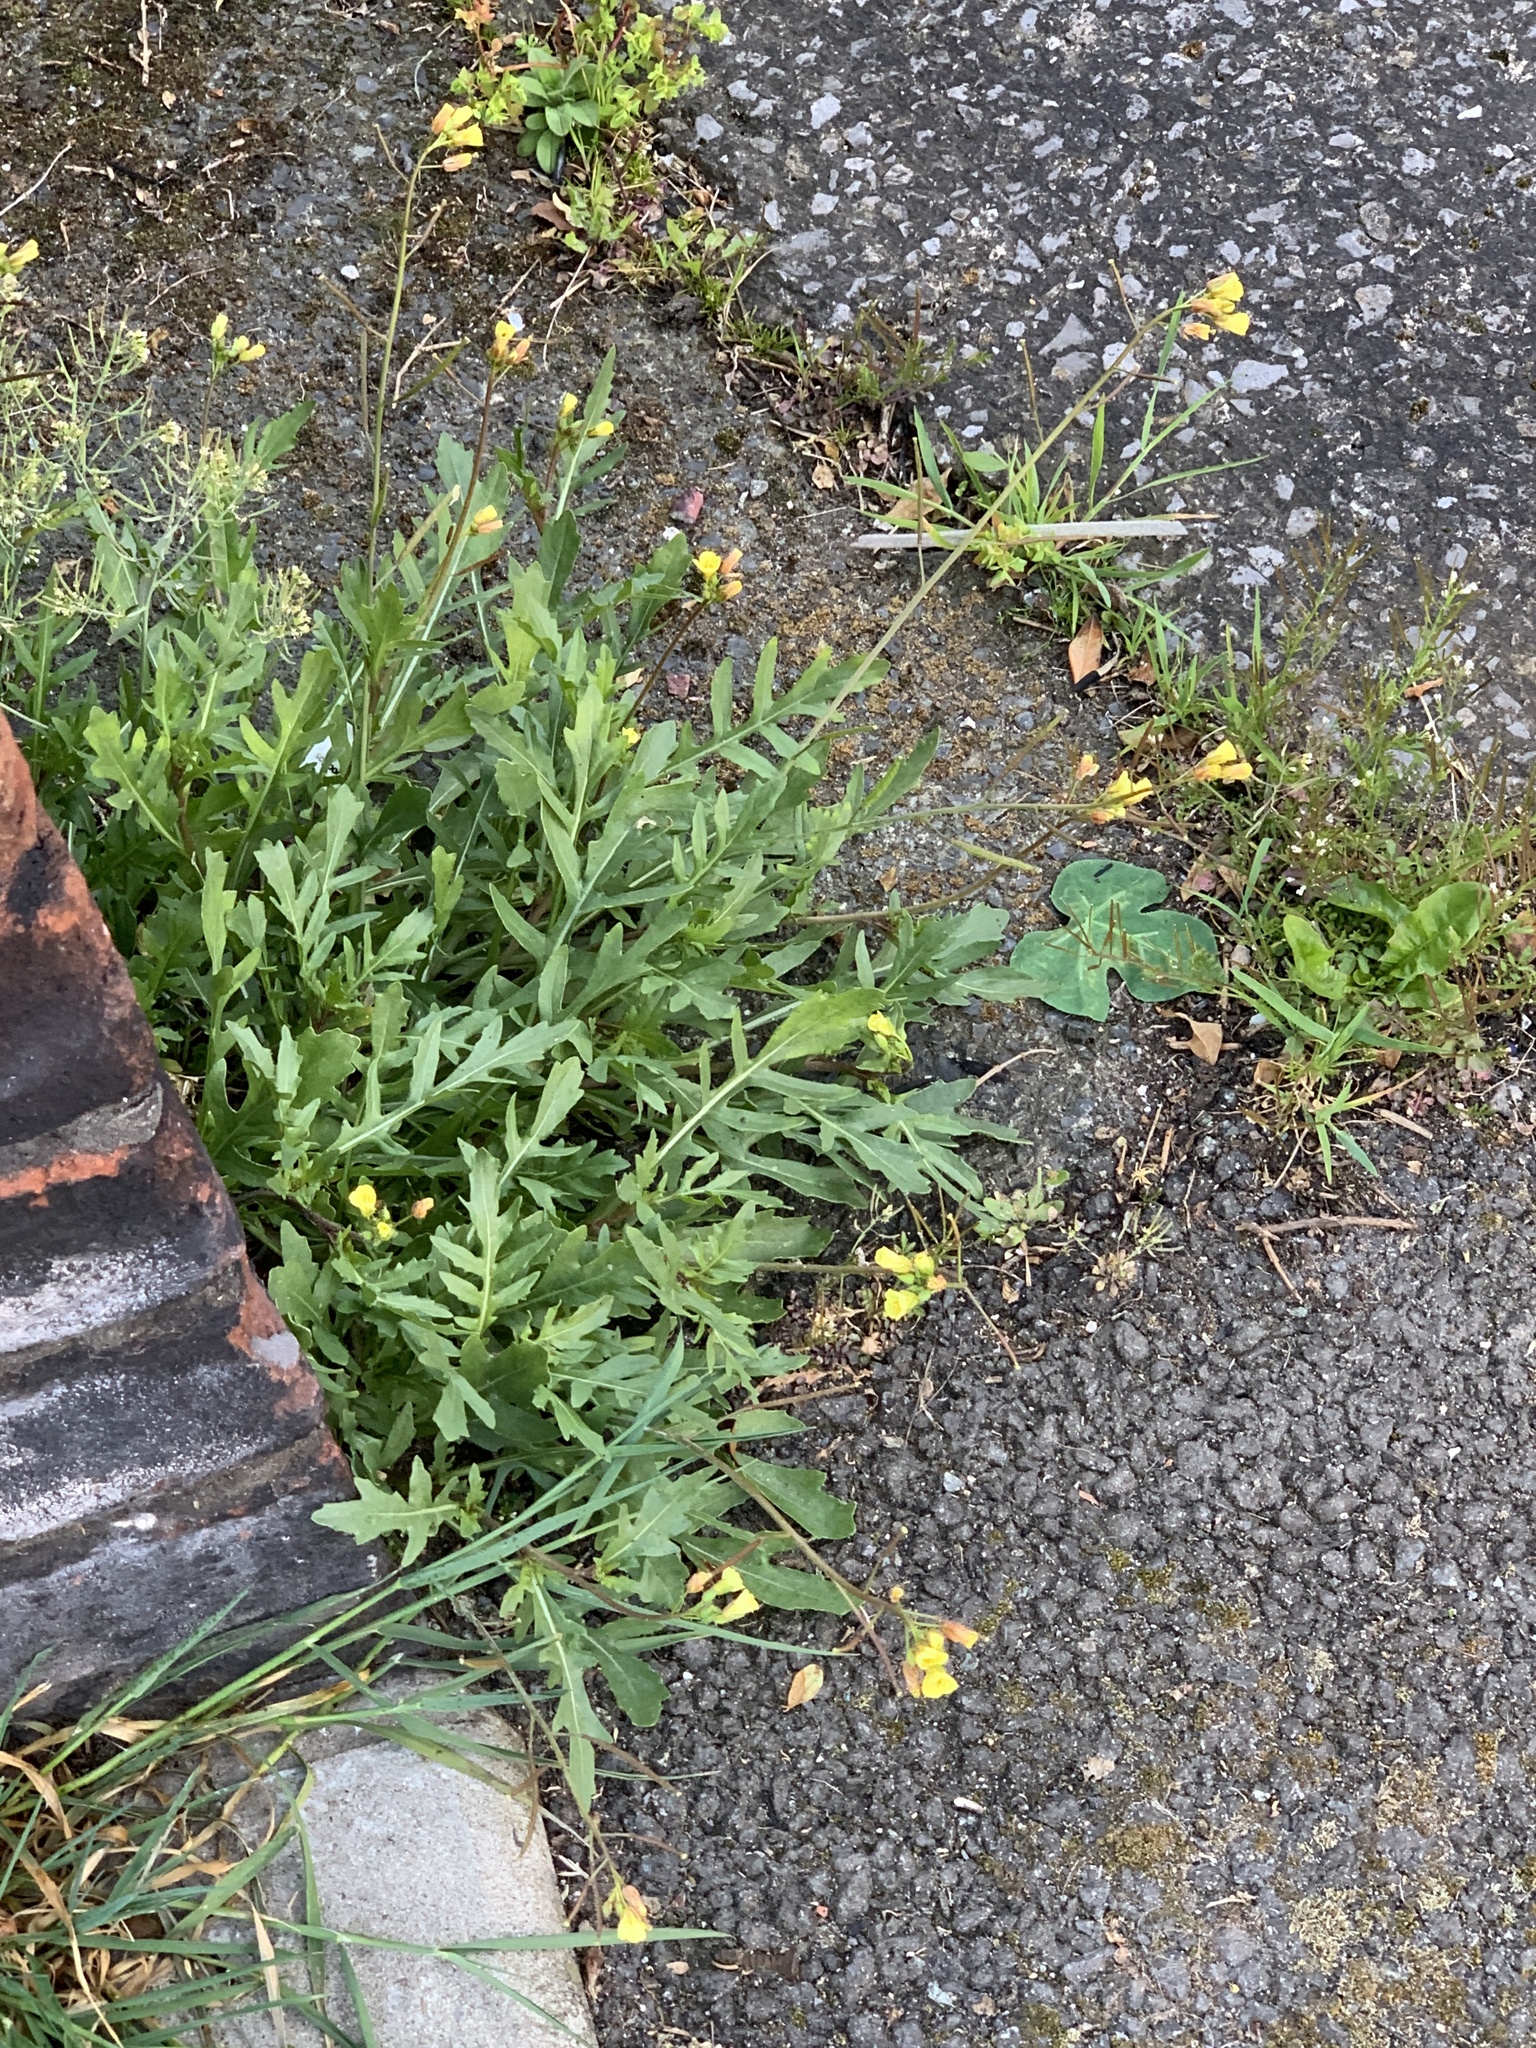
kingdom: Plantae
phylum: Tracheophyta
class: Magnoliopsida
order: Brassicales
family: Brassicaceae
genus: Diplotaxis
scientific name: Diplotaxis muralis
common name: Annual wall-rocket
